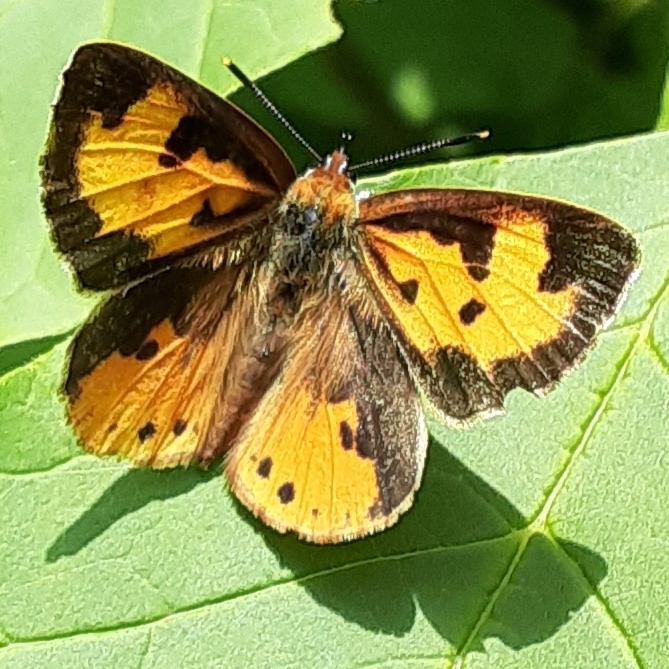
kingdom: Animalia
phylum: Arthropoda
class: Insecta
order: Lepidoptera
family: Lycaenidae
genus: Feniseca
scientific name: Feniseca tarquinius
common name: Harvester
